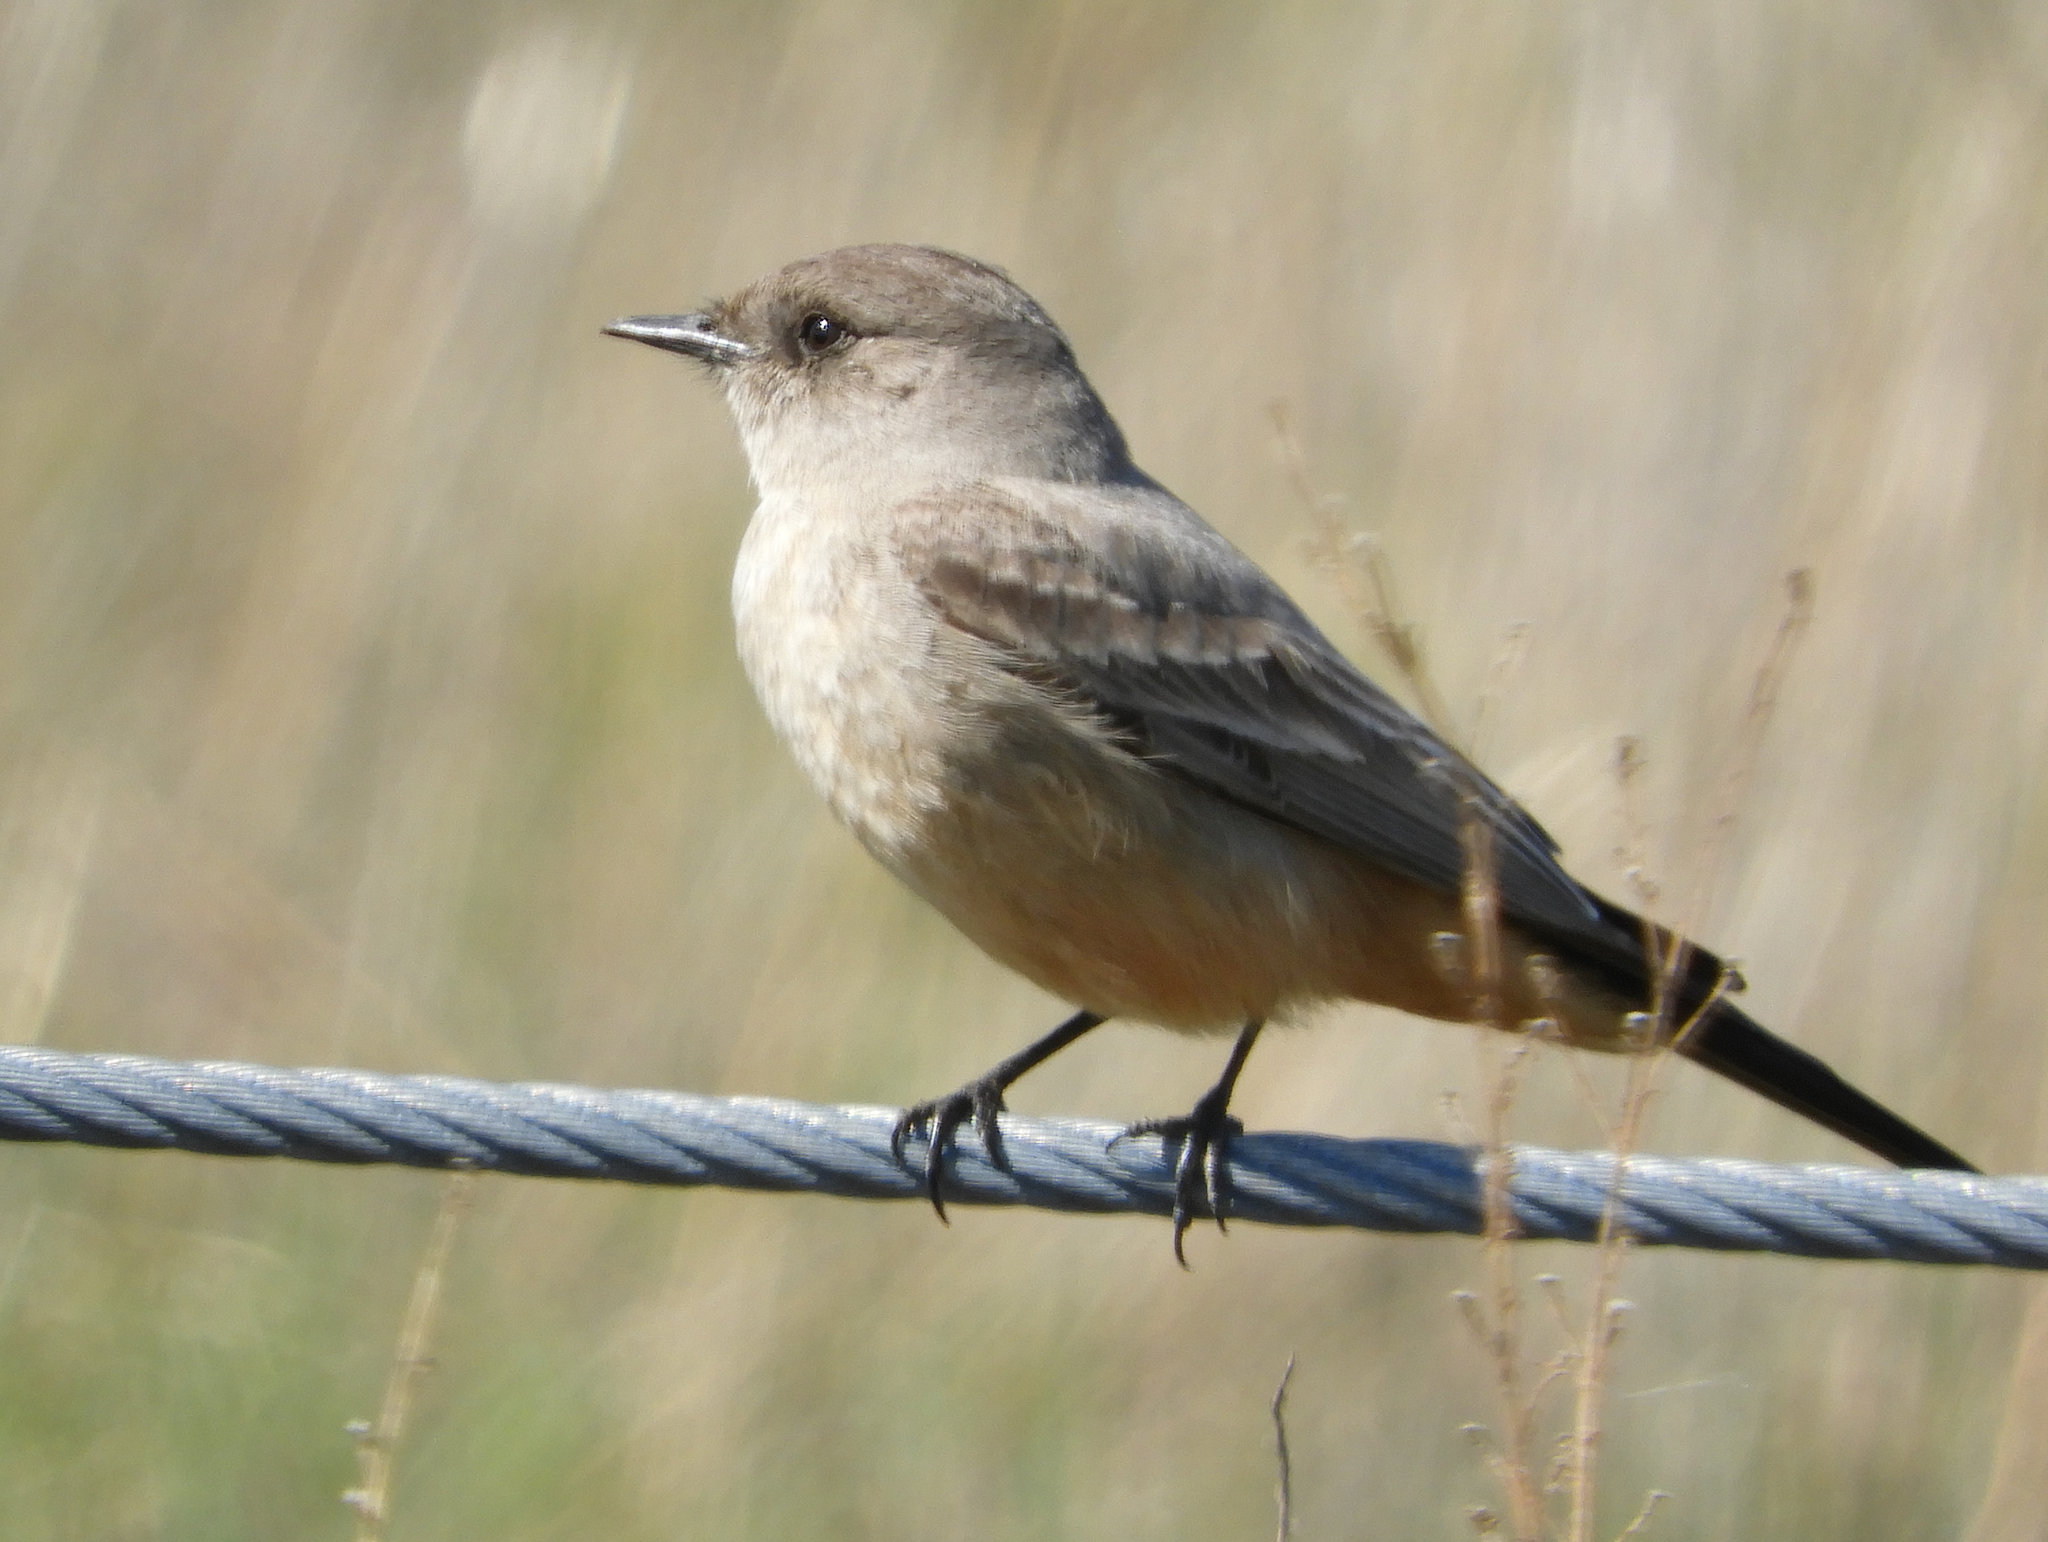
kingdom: Animalia
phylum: Chordata
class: Aves
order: Passeriformes
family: Tyrannidae
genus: Sayornis
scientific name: Sayornis saya
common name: Say's phoebe
